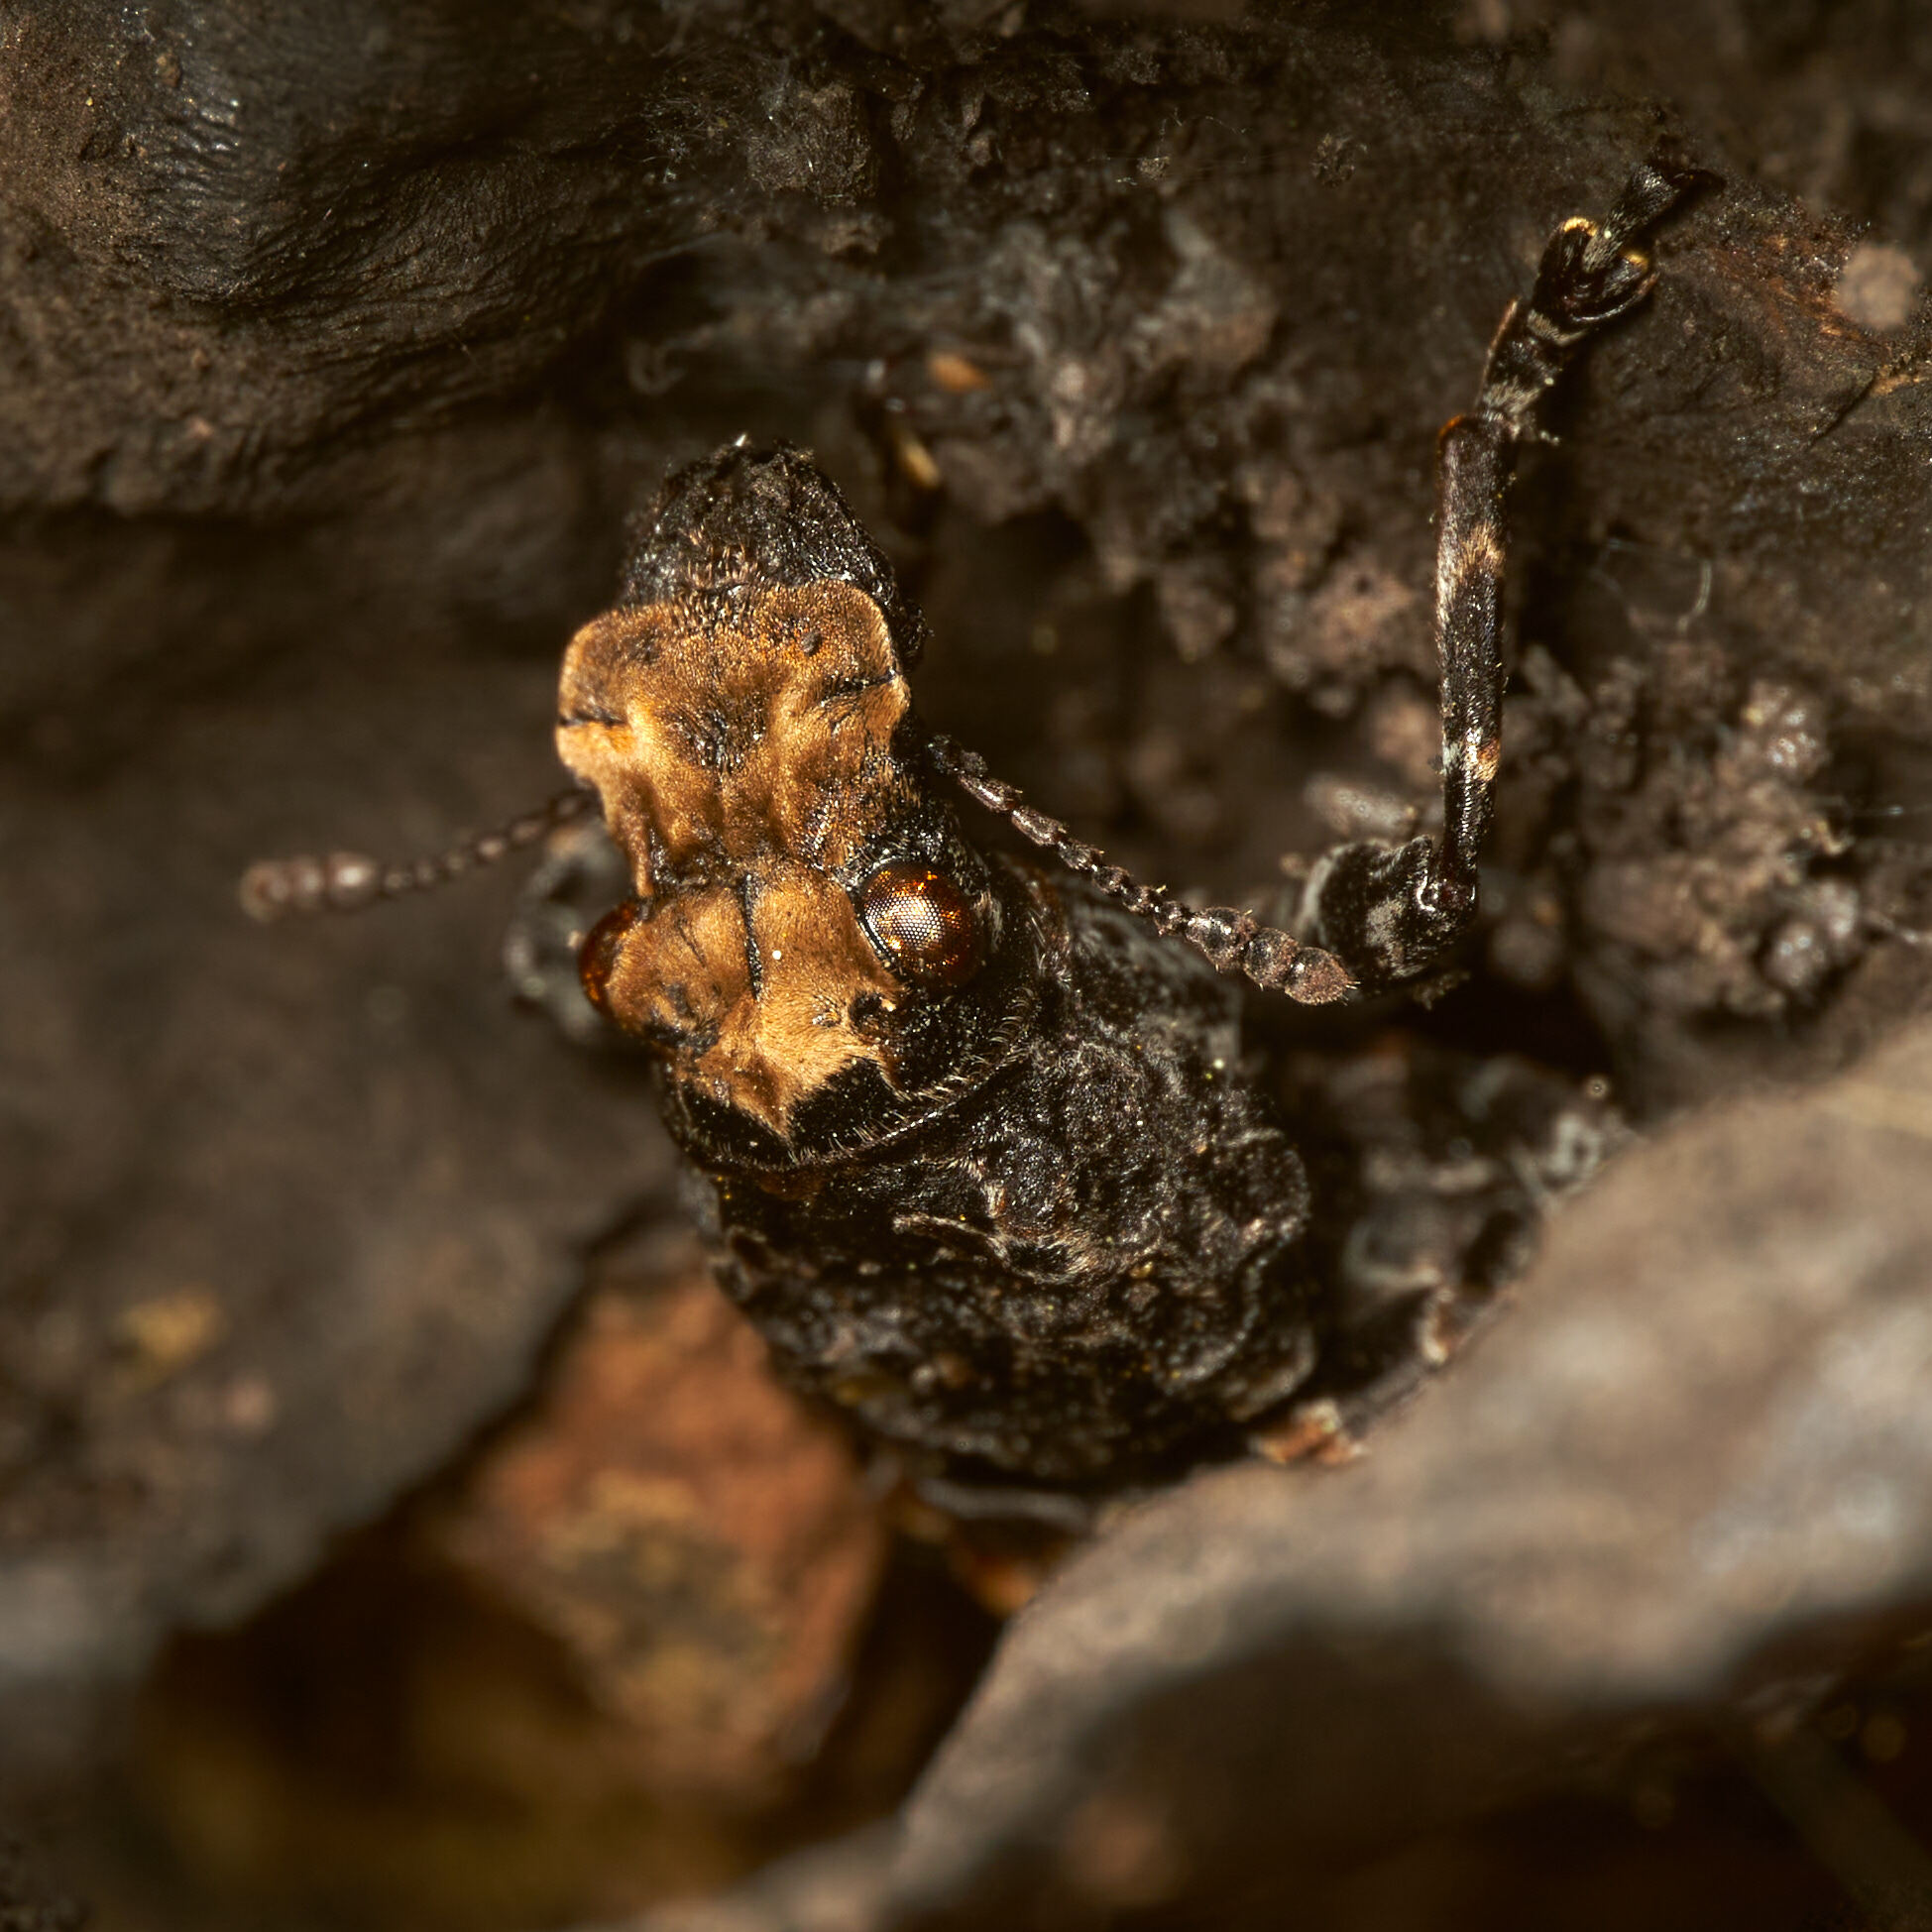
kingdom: Animalia
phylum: Arthropoda
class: Insecta
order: Coleoptera
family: Anthribidae
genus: Platyrhinus
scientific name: Platyrhinus resinosus
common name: Cramp-ball fungus weevil
